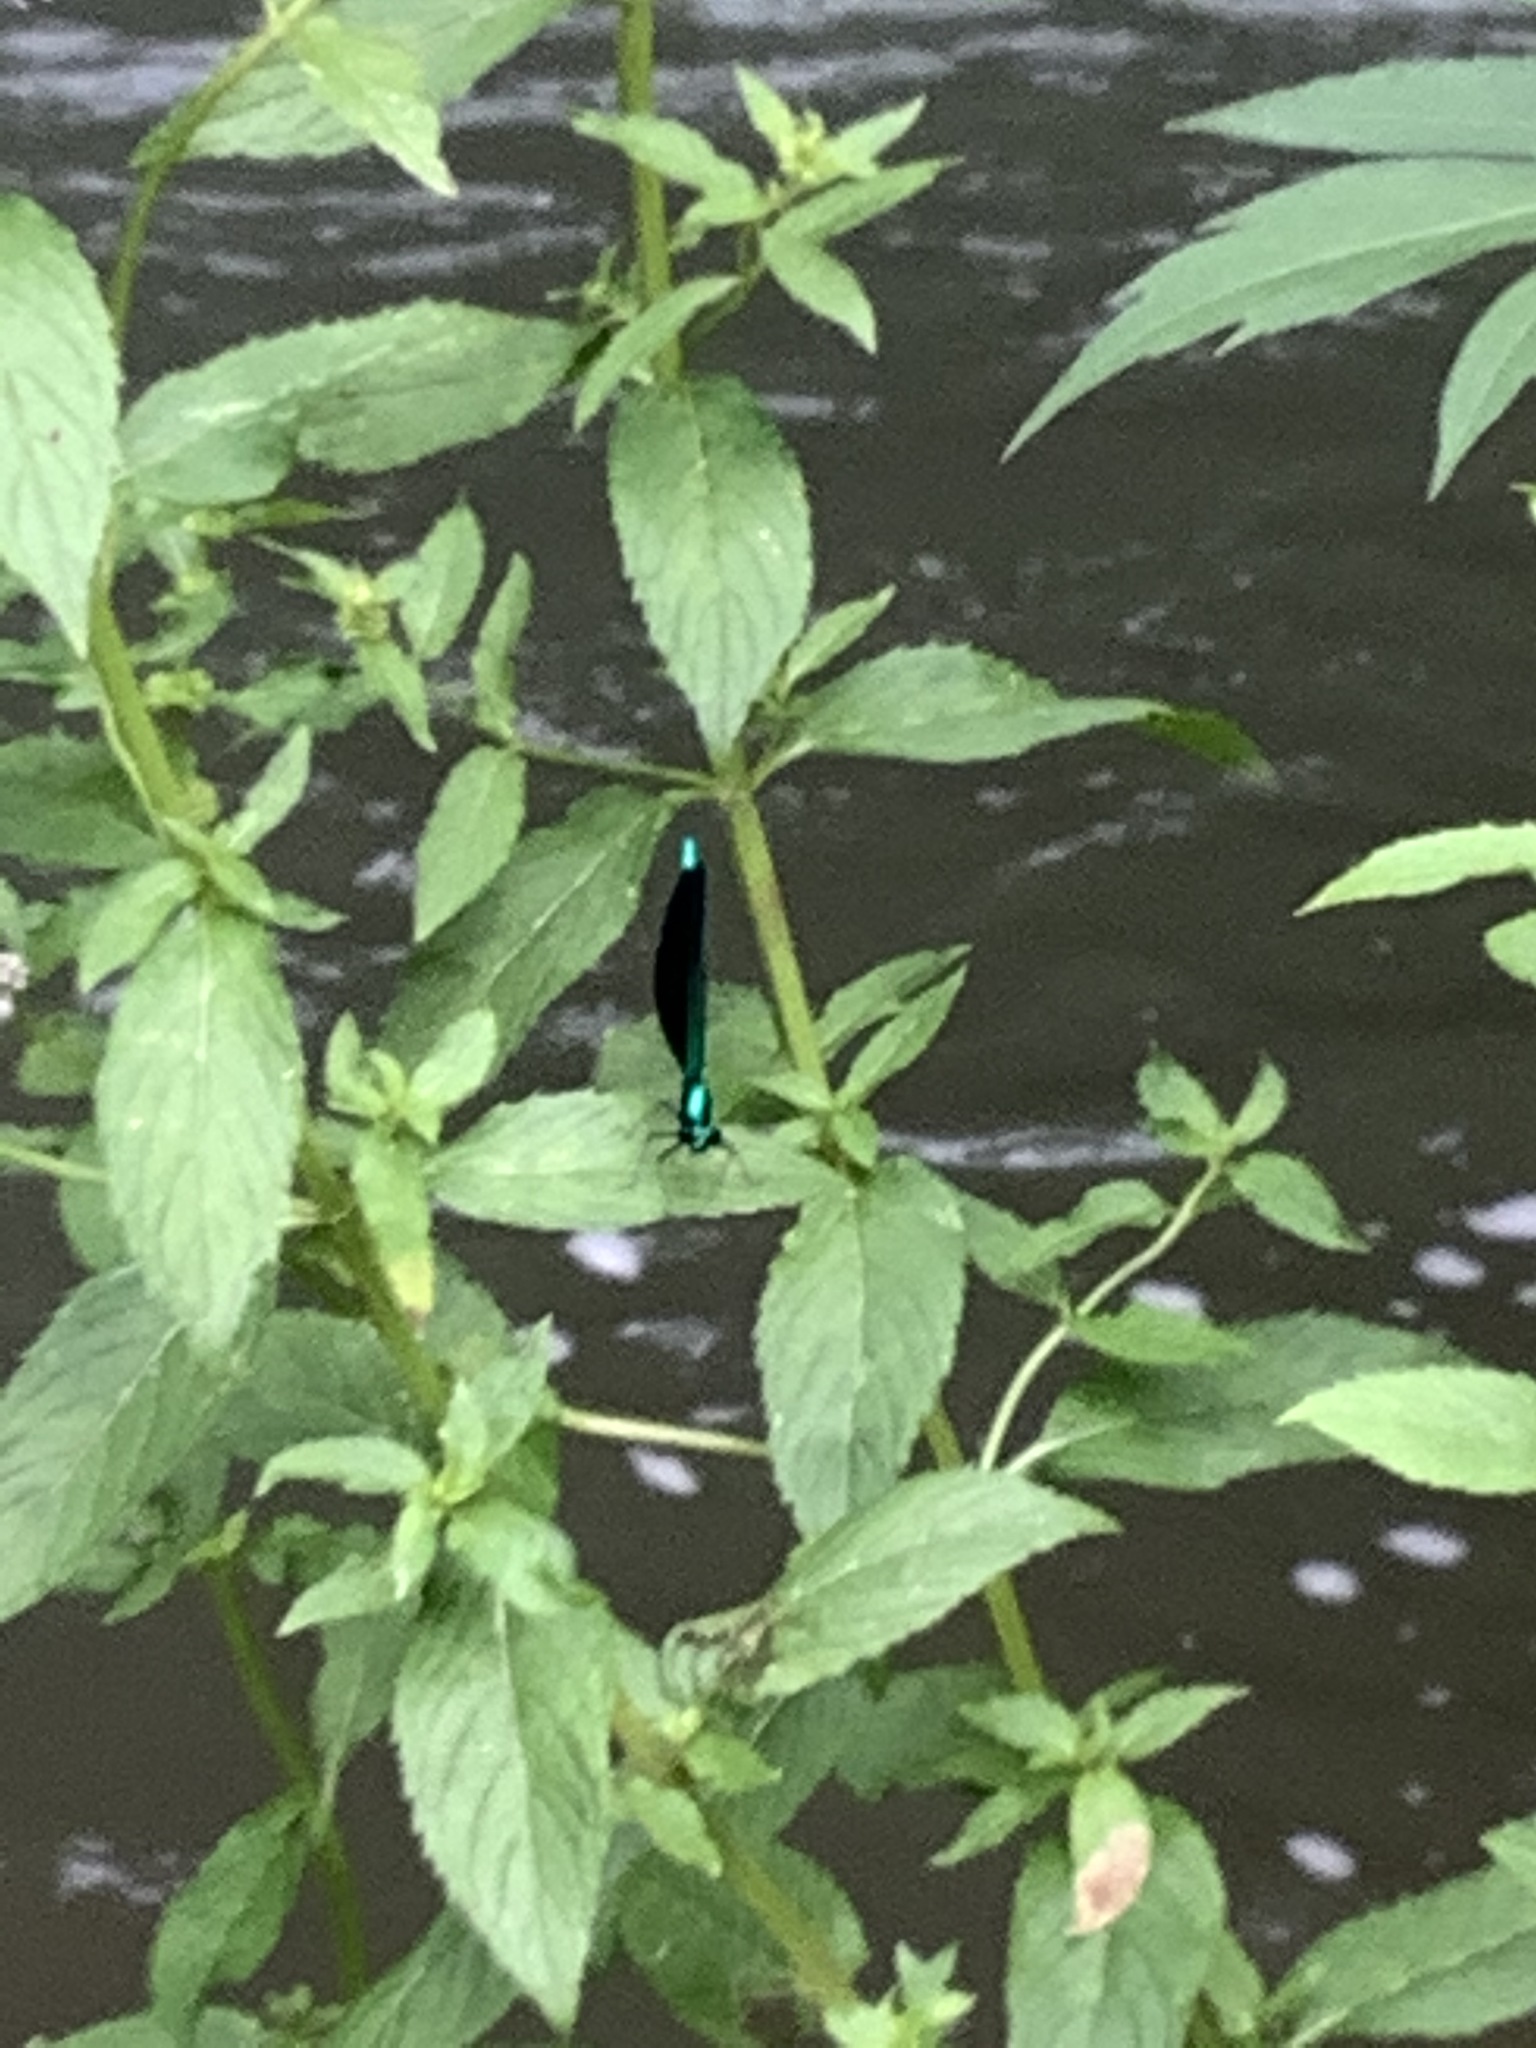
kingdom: Animalia
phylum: Arthropoda
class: Insecta
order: Odonata
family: Calopterygidae
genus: Calopteryx
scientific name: Calopteryx maculata
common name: Ebony jewelwing
